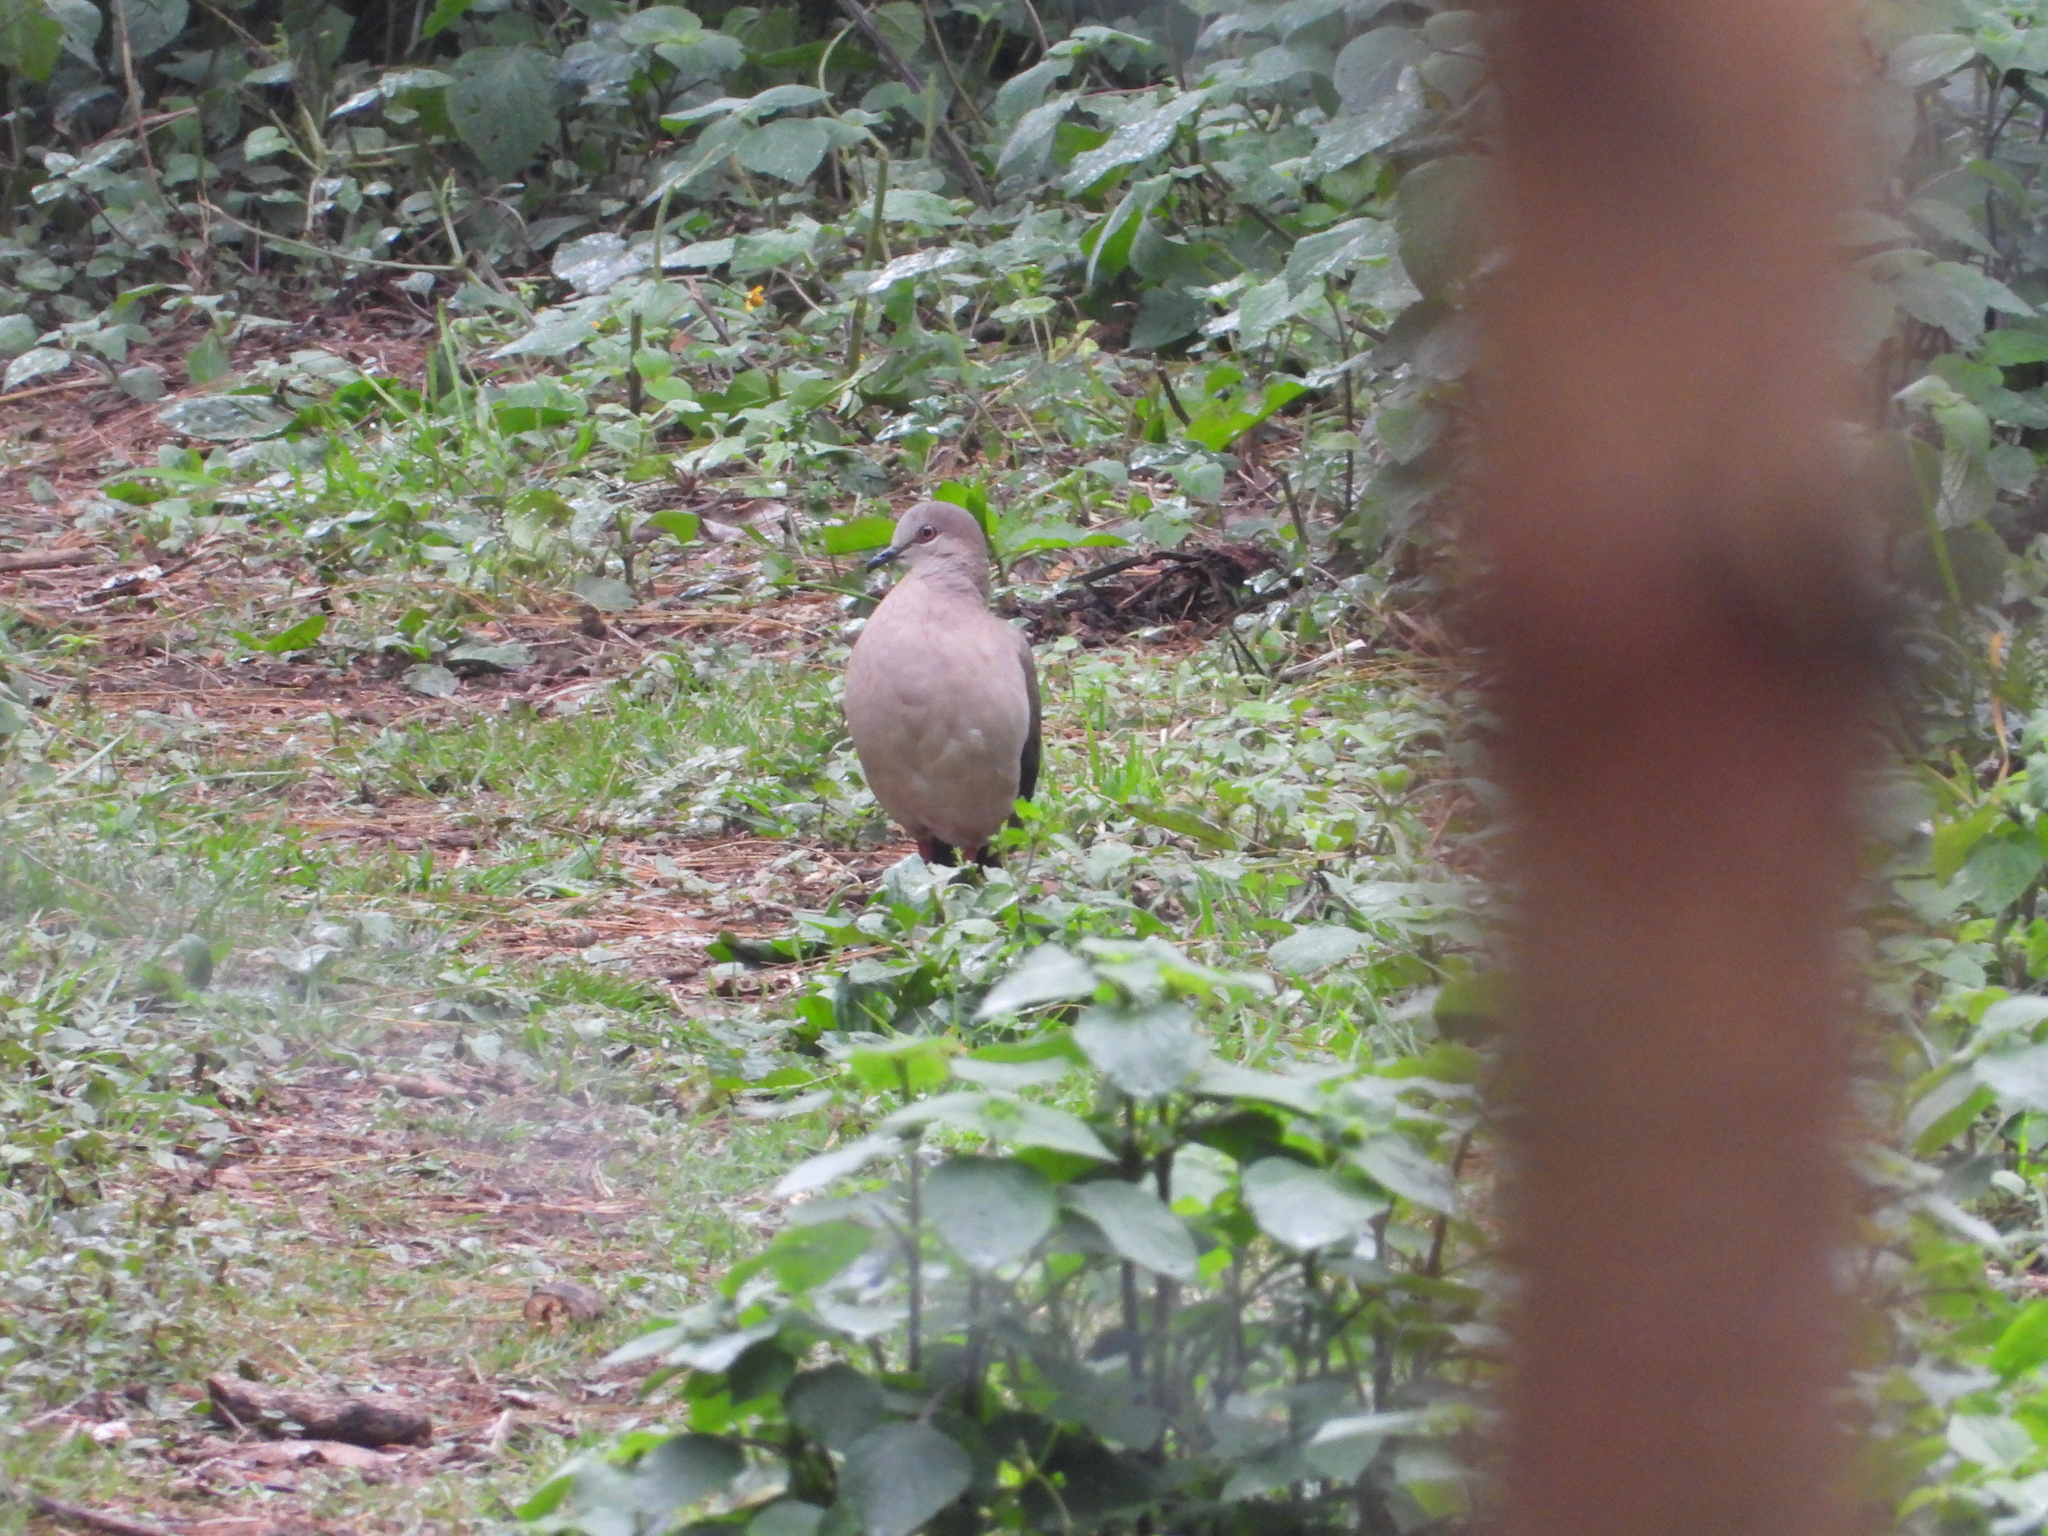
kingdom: Animalia
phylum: Chordata
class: Aves
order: Columbiformes
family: Columbidae
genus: Leptotila
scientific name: Leptotila verreauxi
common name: White-tipped dove
